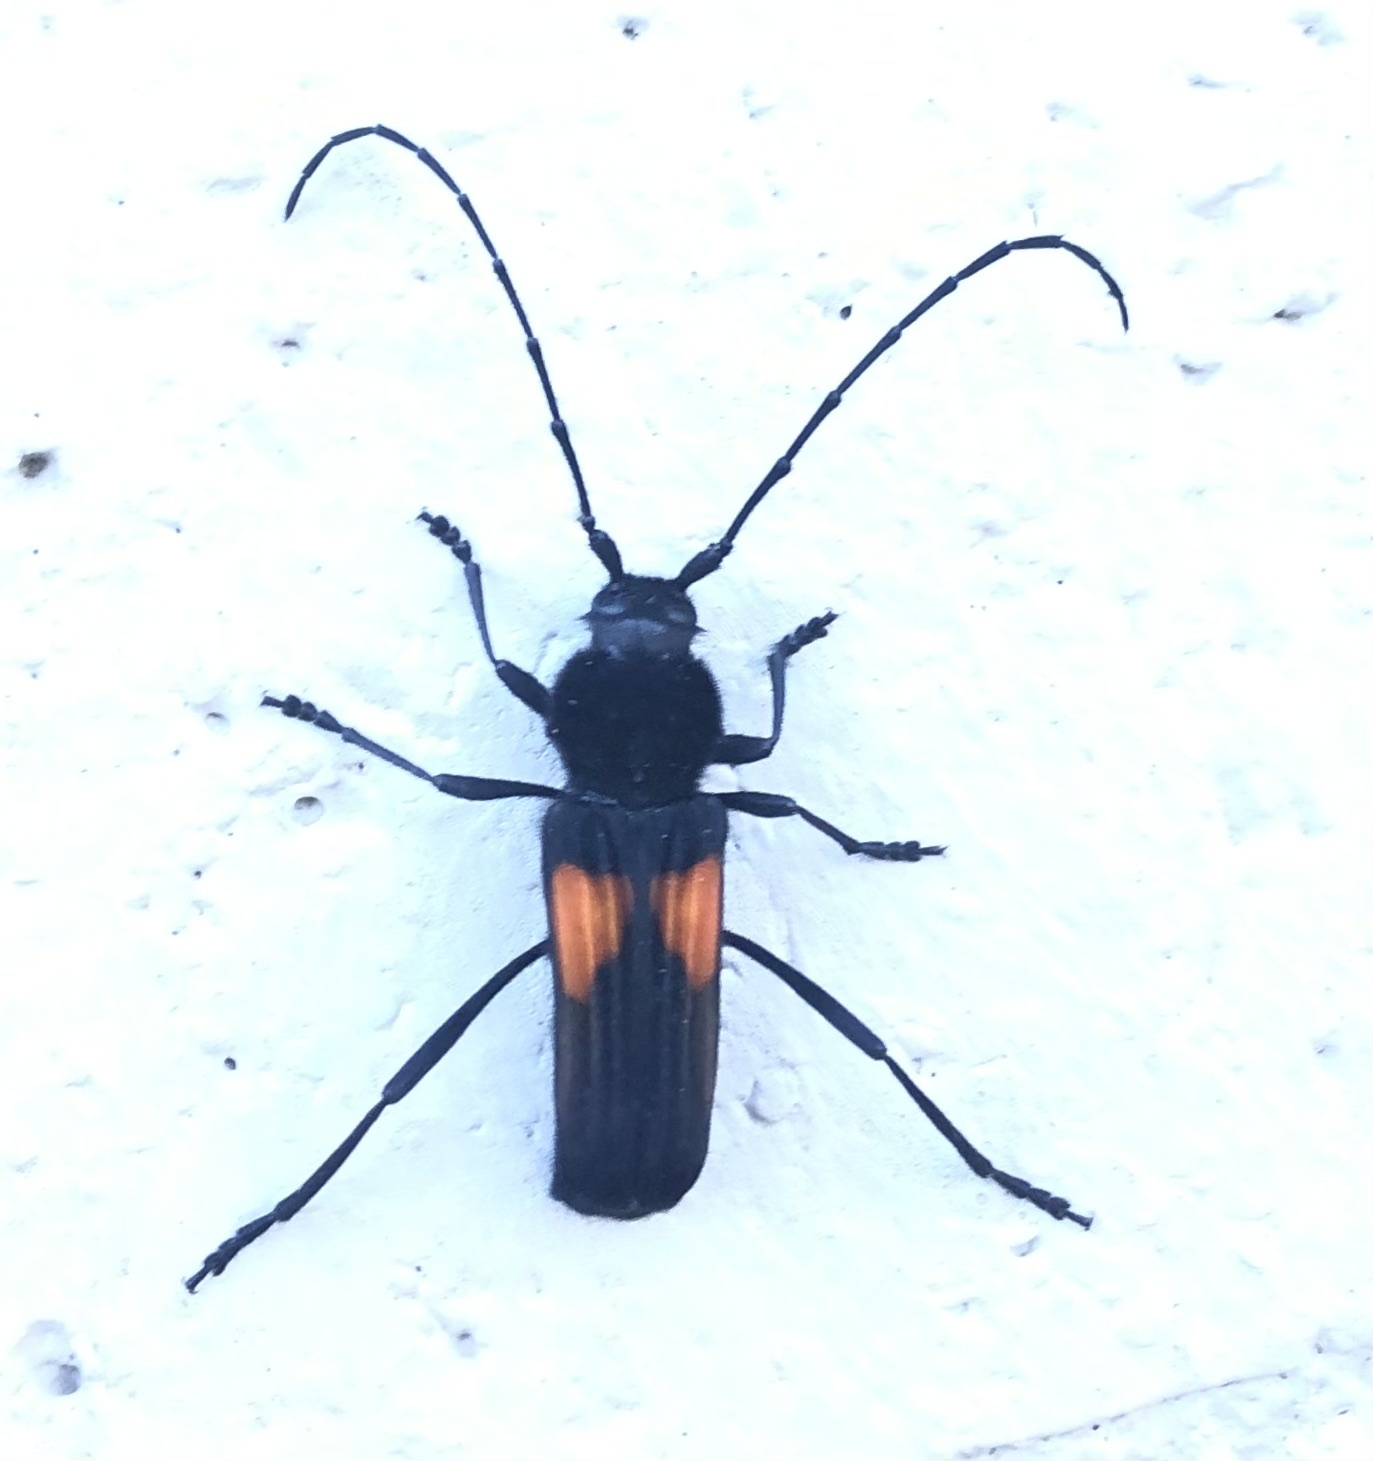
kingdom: Animalia
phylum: Arthropoda
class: Insecta
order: Coleoptera
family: Cerambycidae
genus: Tragidion
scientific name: Tragidion coquus
